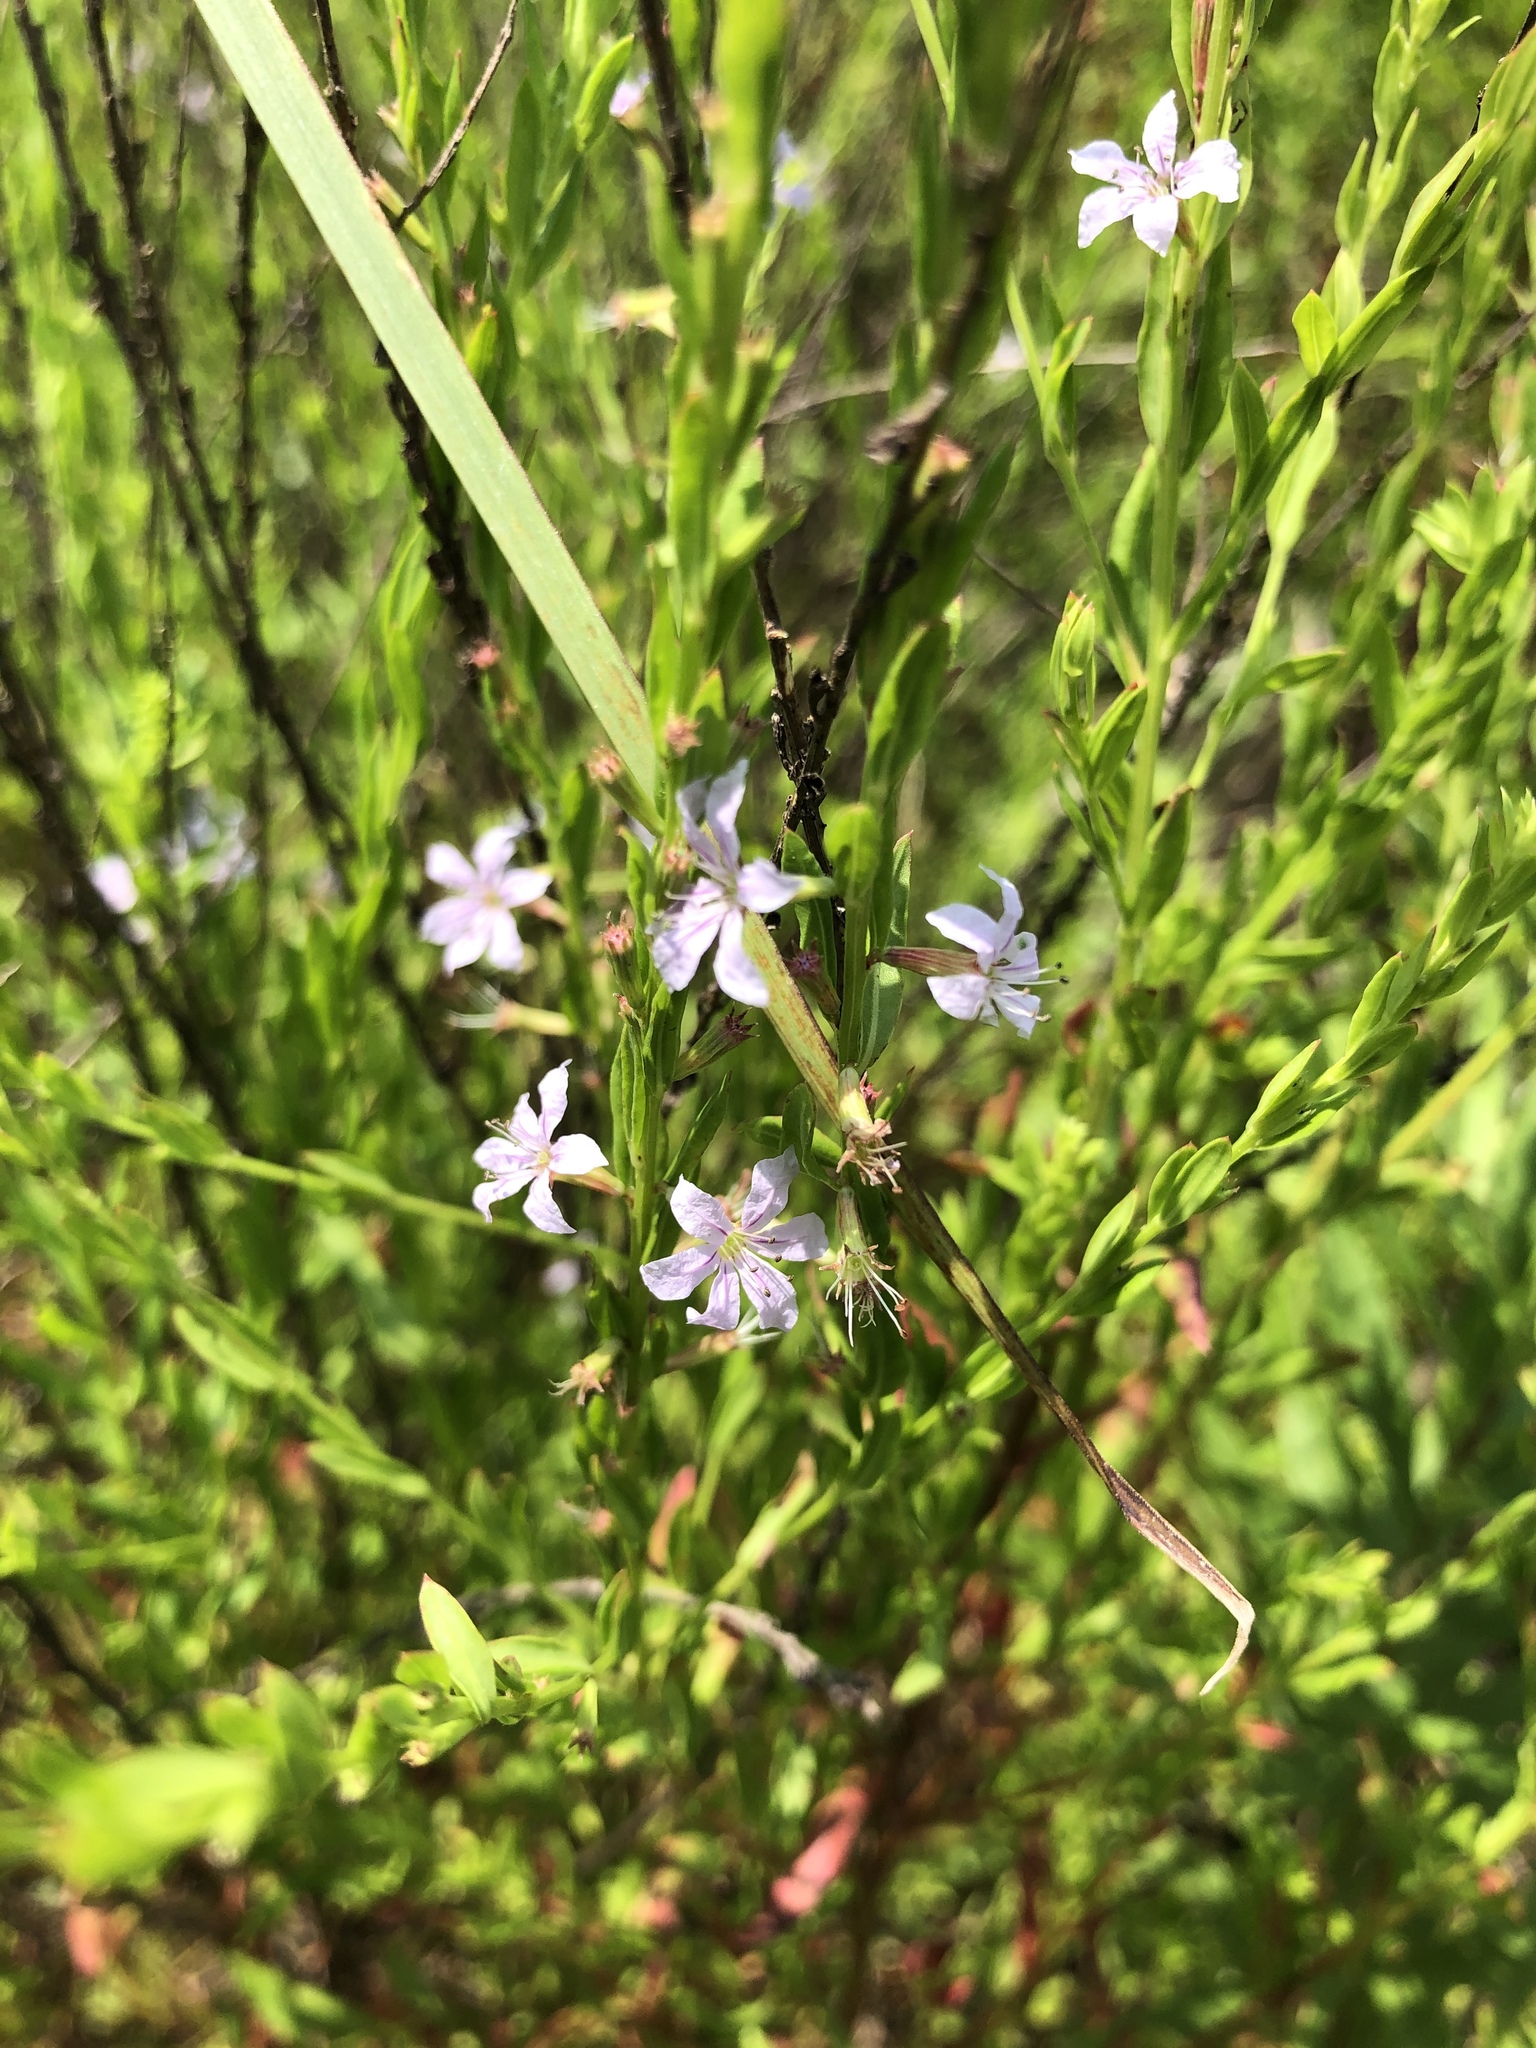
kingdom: Plantae
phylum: Tracheophyta
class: Magnoliopsida
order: Myrtales
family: Lythraceae
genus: Lythrum
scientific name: Lythrum alatum
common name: Winged loosestrife
